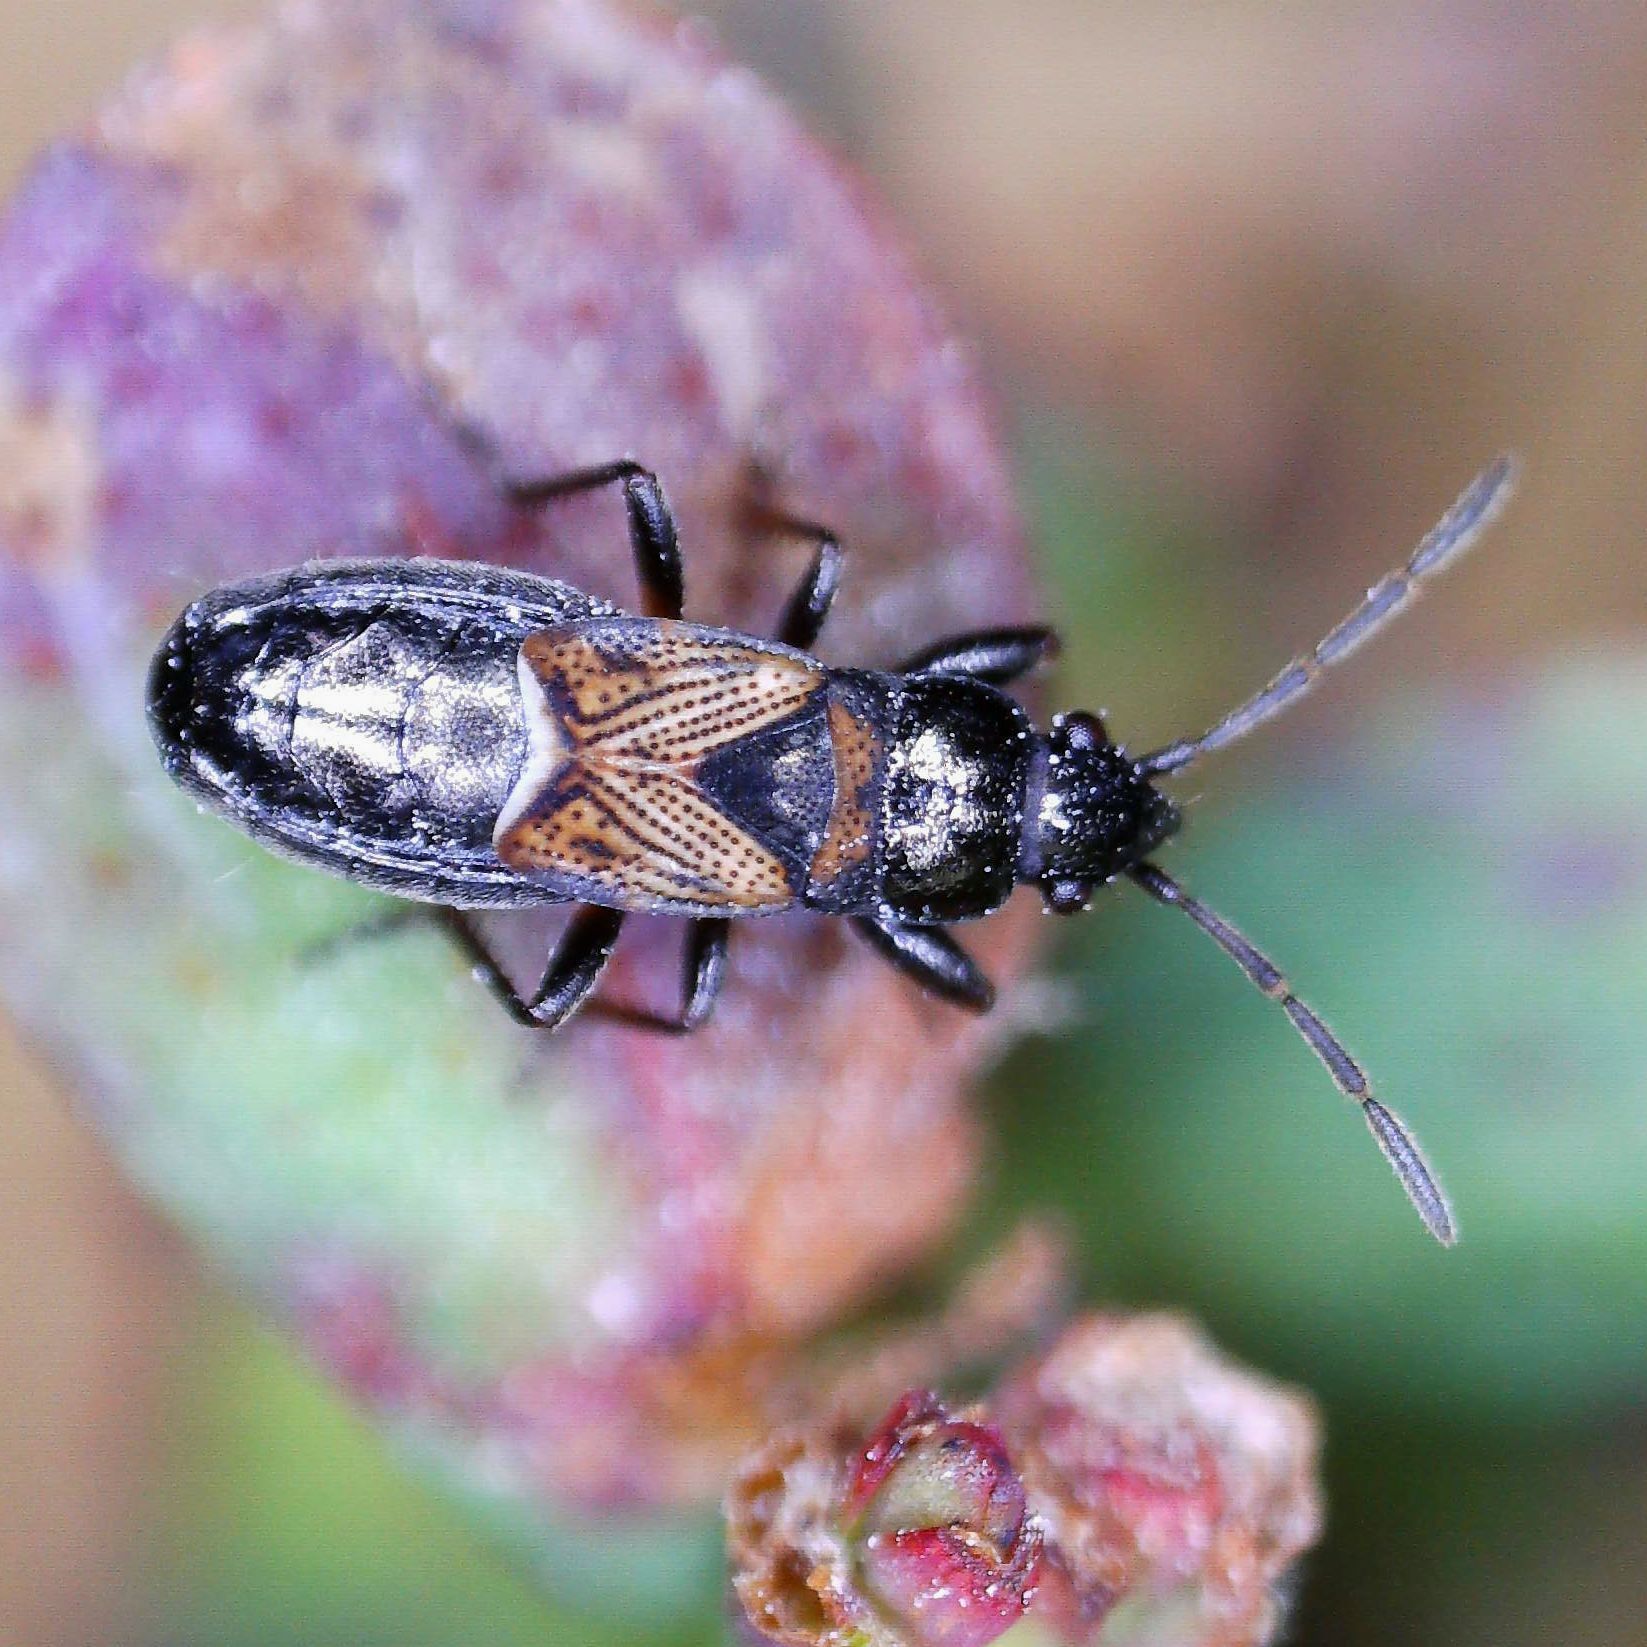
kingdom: Animalia
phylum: Arthropoda
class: Insecta
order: Hemiptera
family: Rhyparochromidae
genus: Macrodema
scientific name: Macrodema microptera
